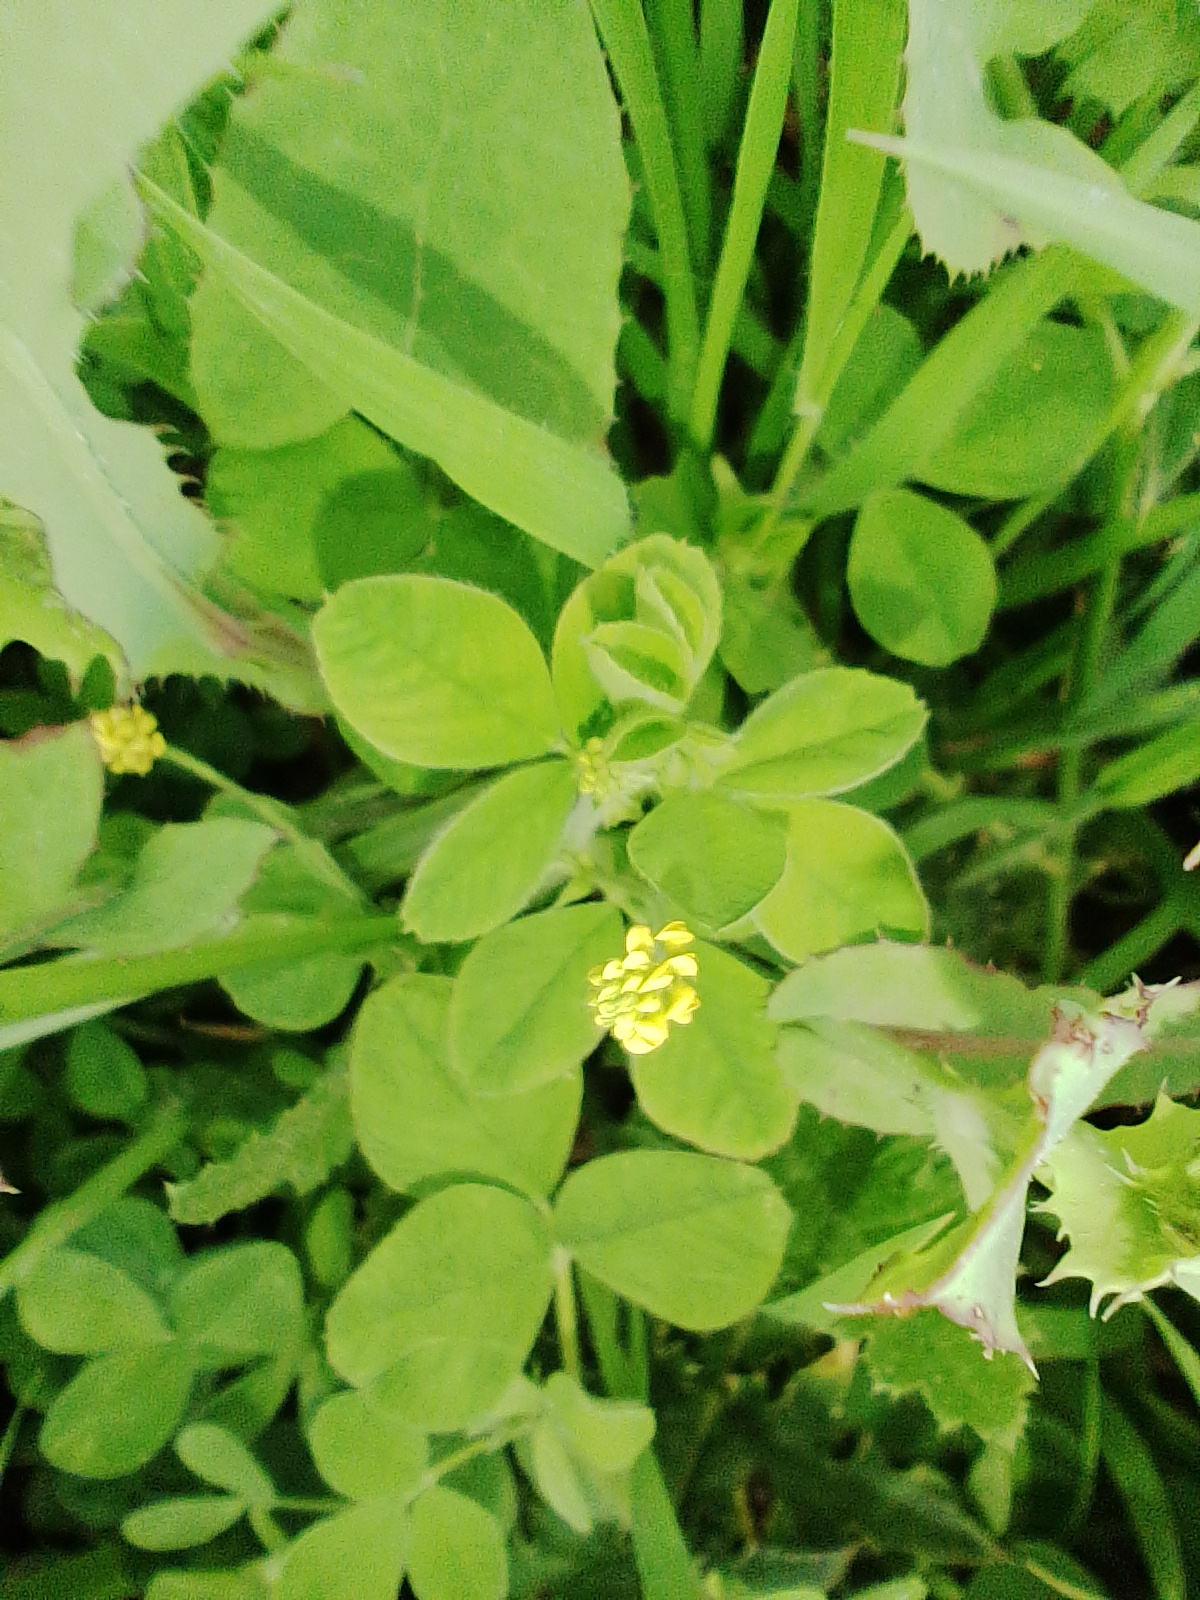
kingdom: Plantae
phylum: Tracheophyta
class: Magnoliopsida
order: Fabales
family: Fabaceae
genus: Medicago
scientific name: Medicago lupulina
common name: Black medick
